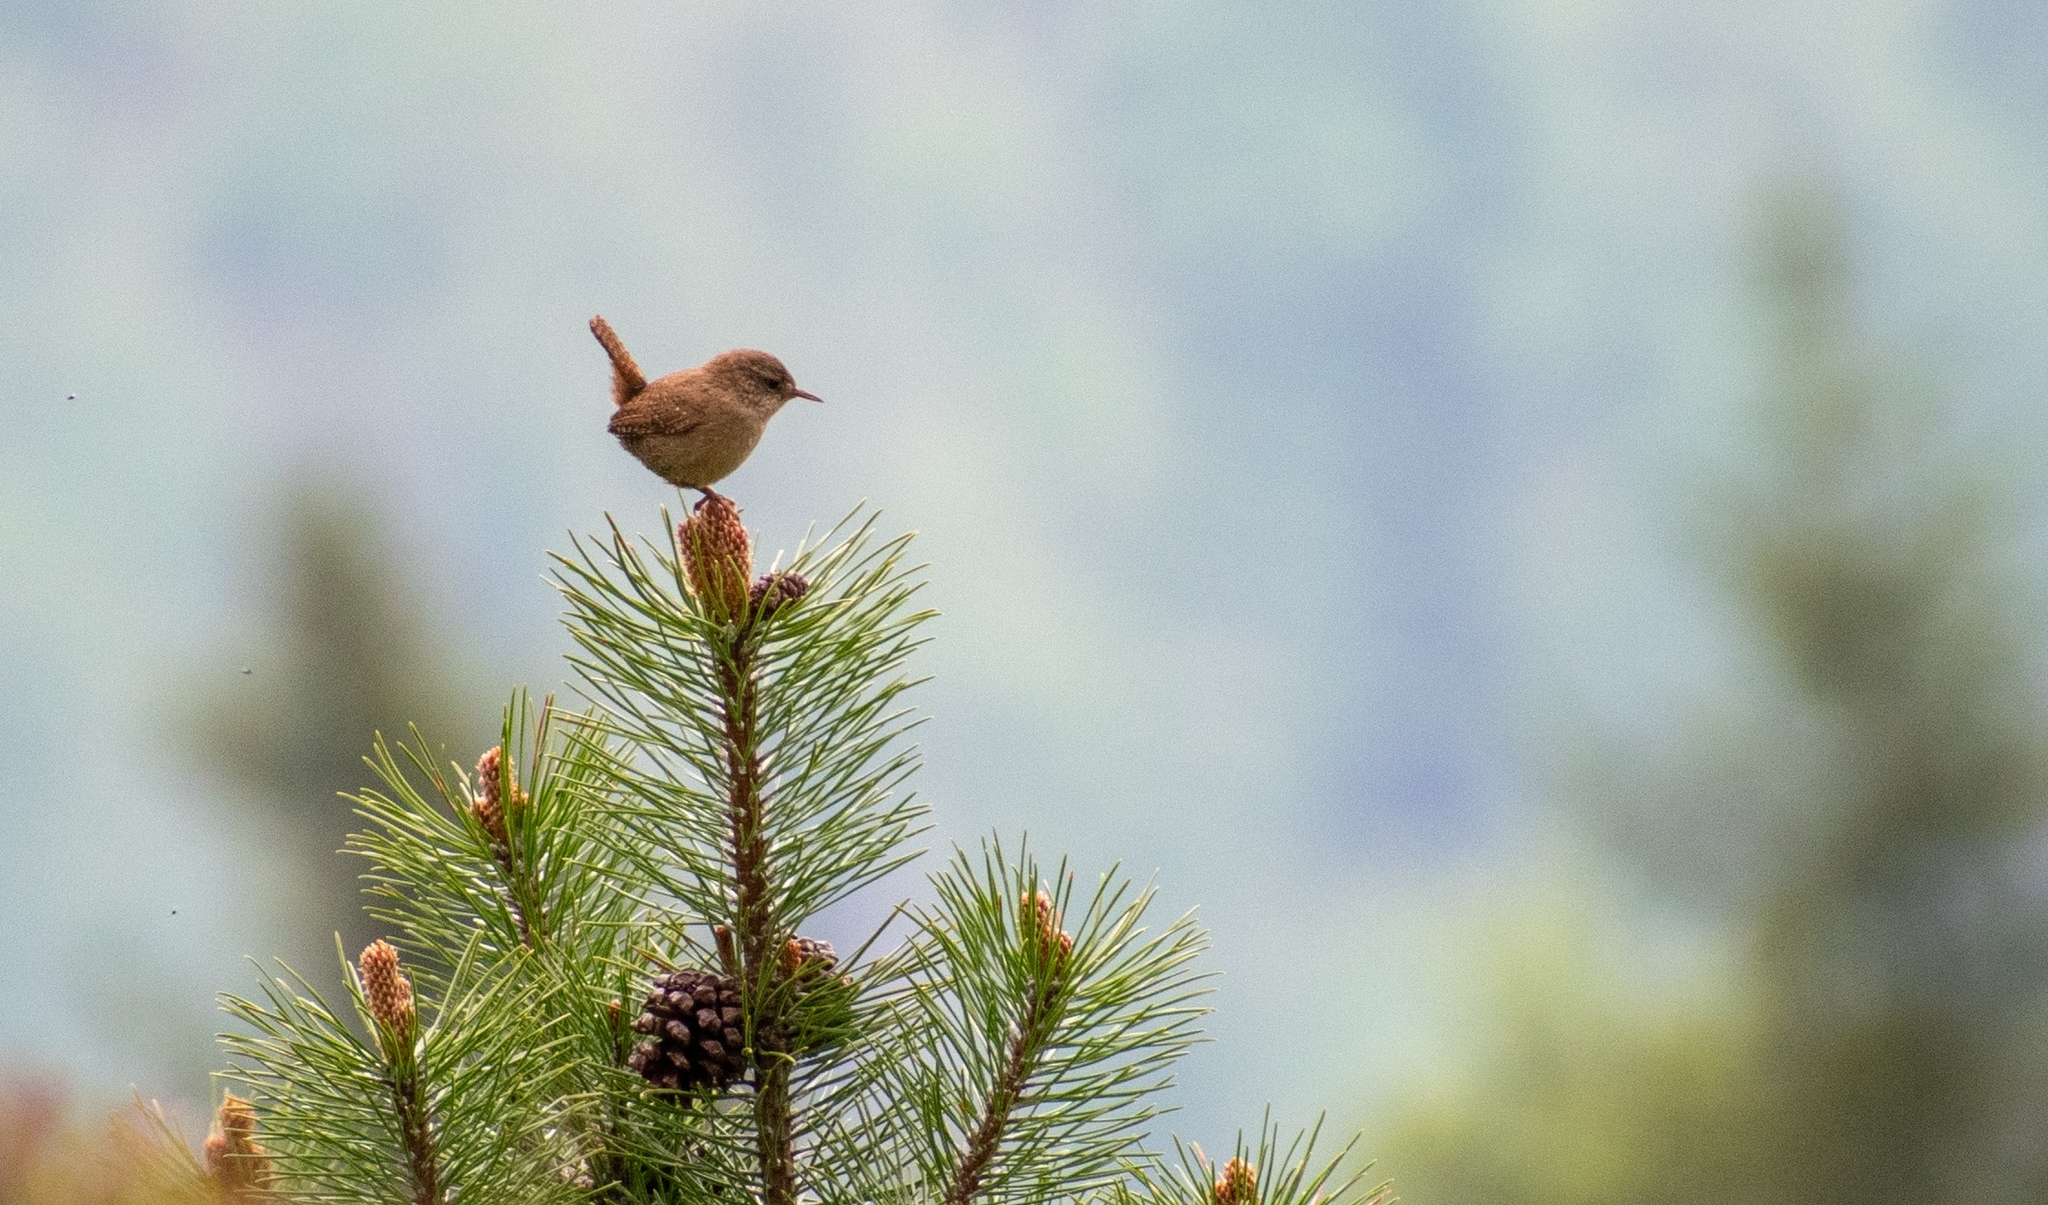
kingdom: Animalia
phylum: Chordata
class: Aves
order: Passeriformes
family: Troglodytidae
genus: Troglodytes
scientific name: Troglodytes troglodytes
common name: Eurasian wren
